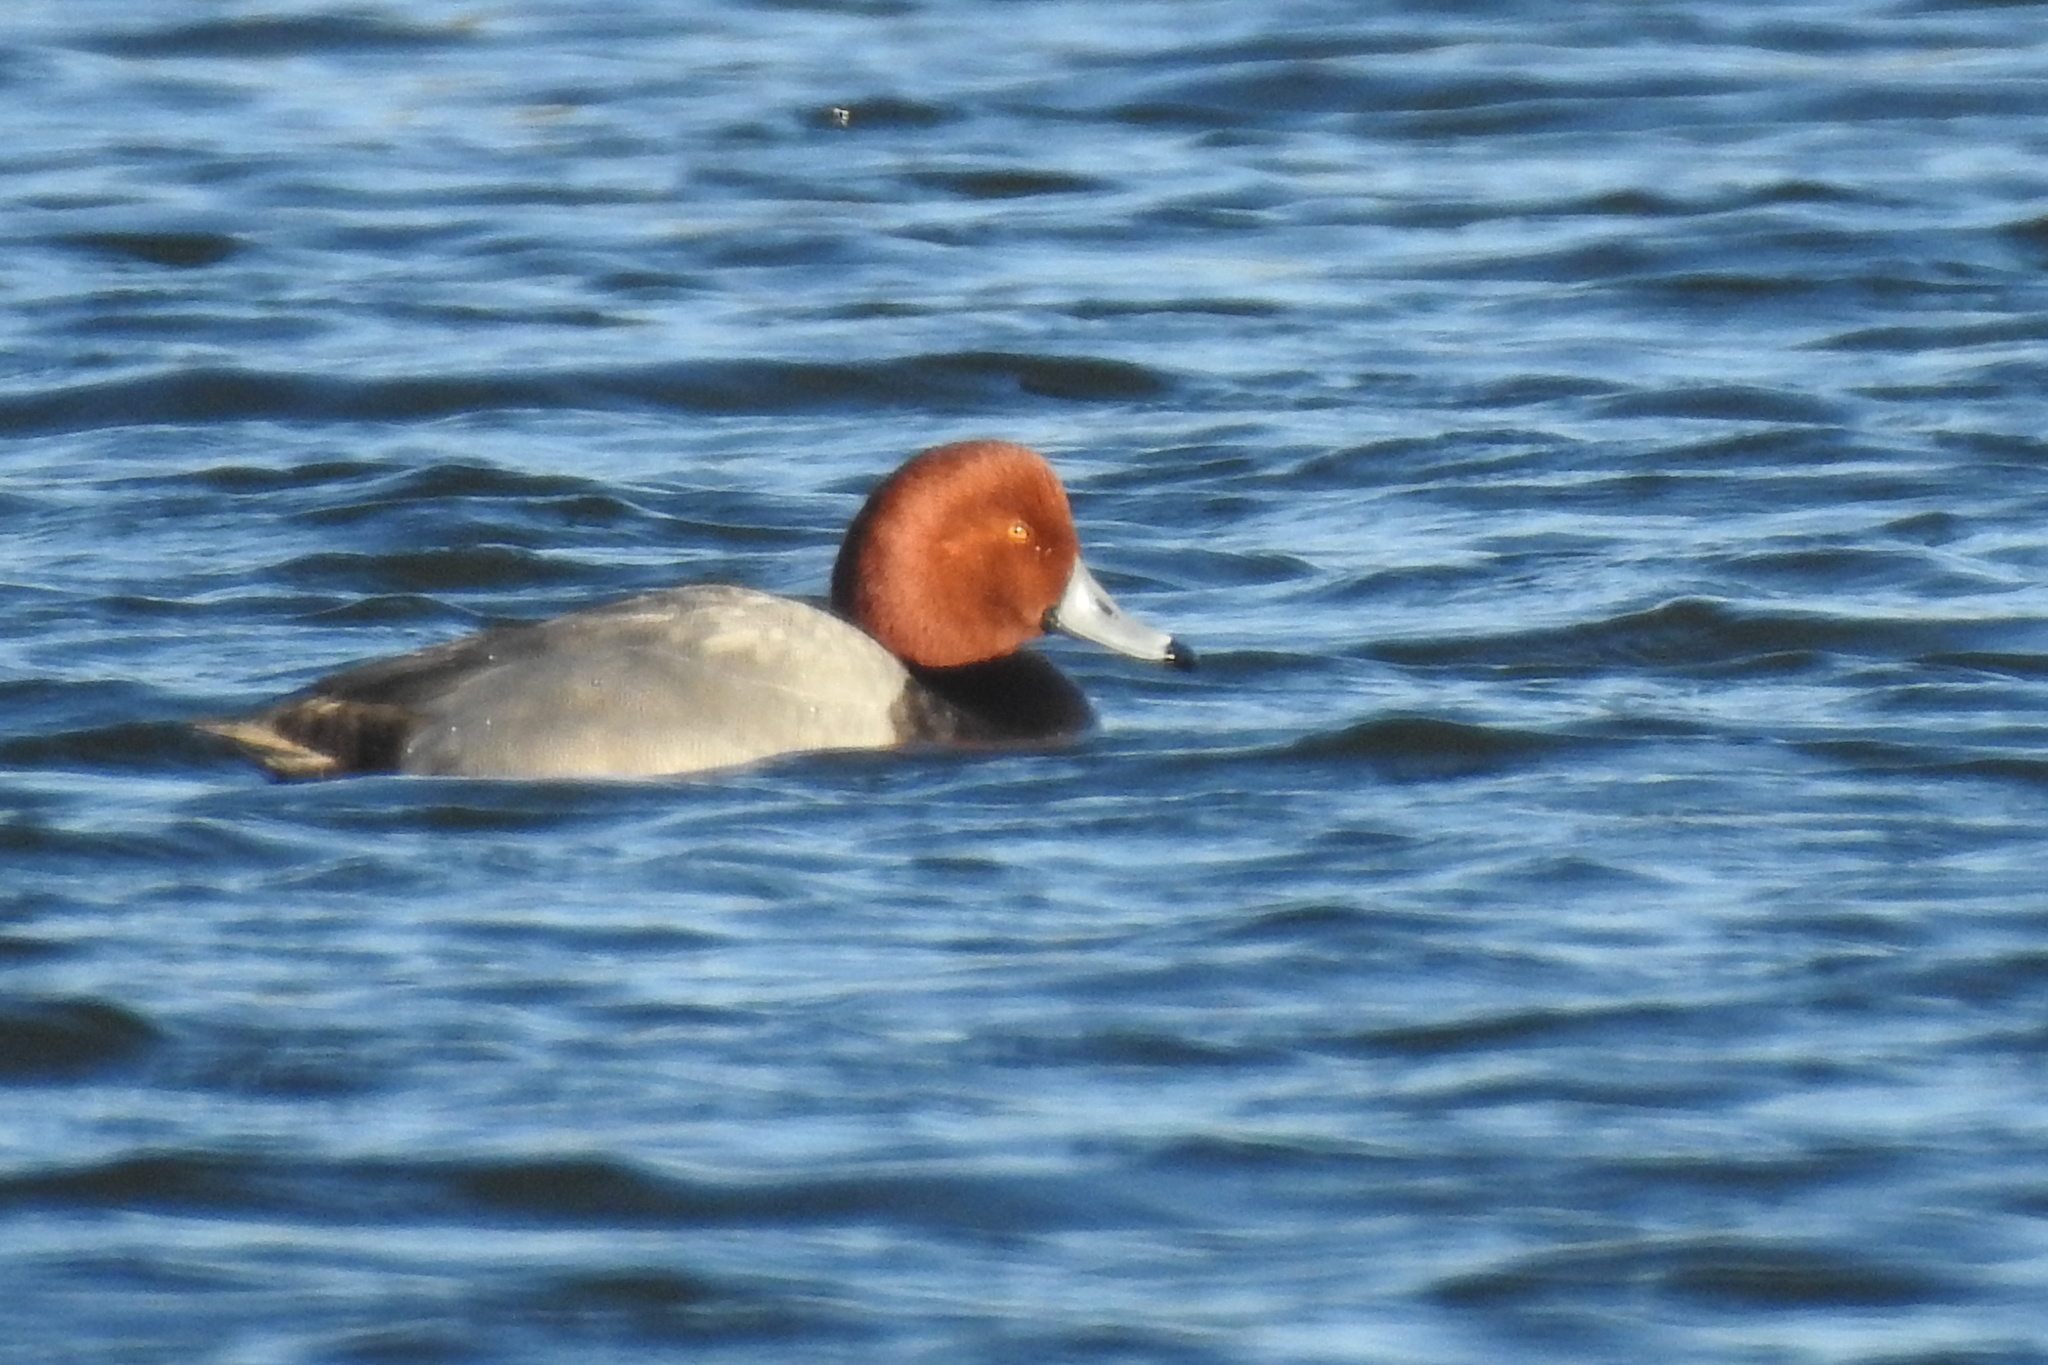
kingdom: Animalia
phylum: Chordata
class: Aves
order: Anseriformes
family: Anatidae
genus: Aythya
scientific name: Aythya americana
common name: Redhead
